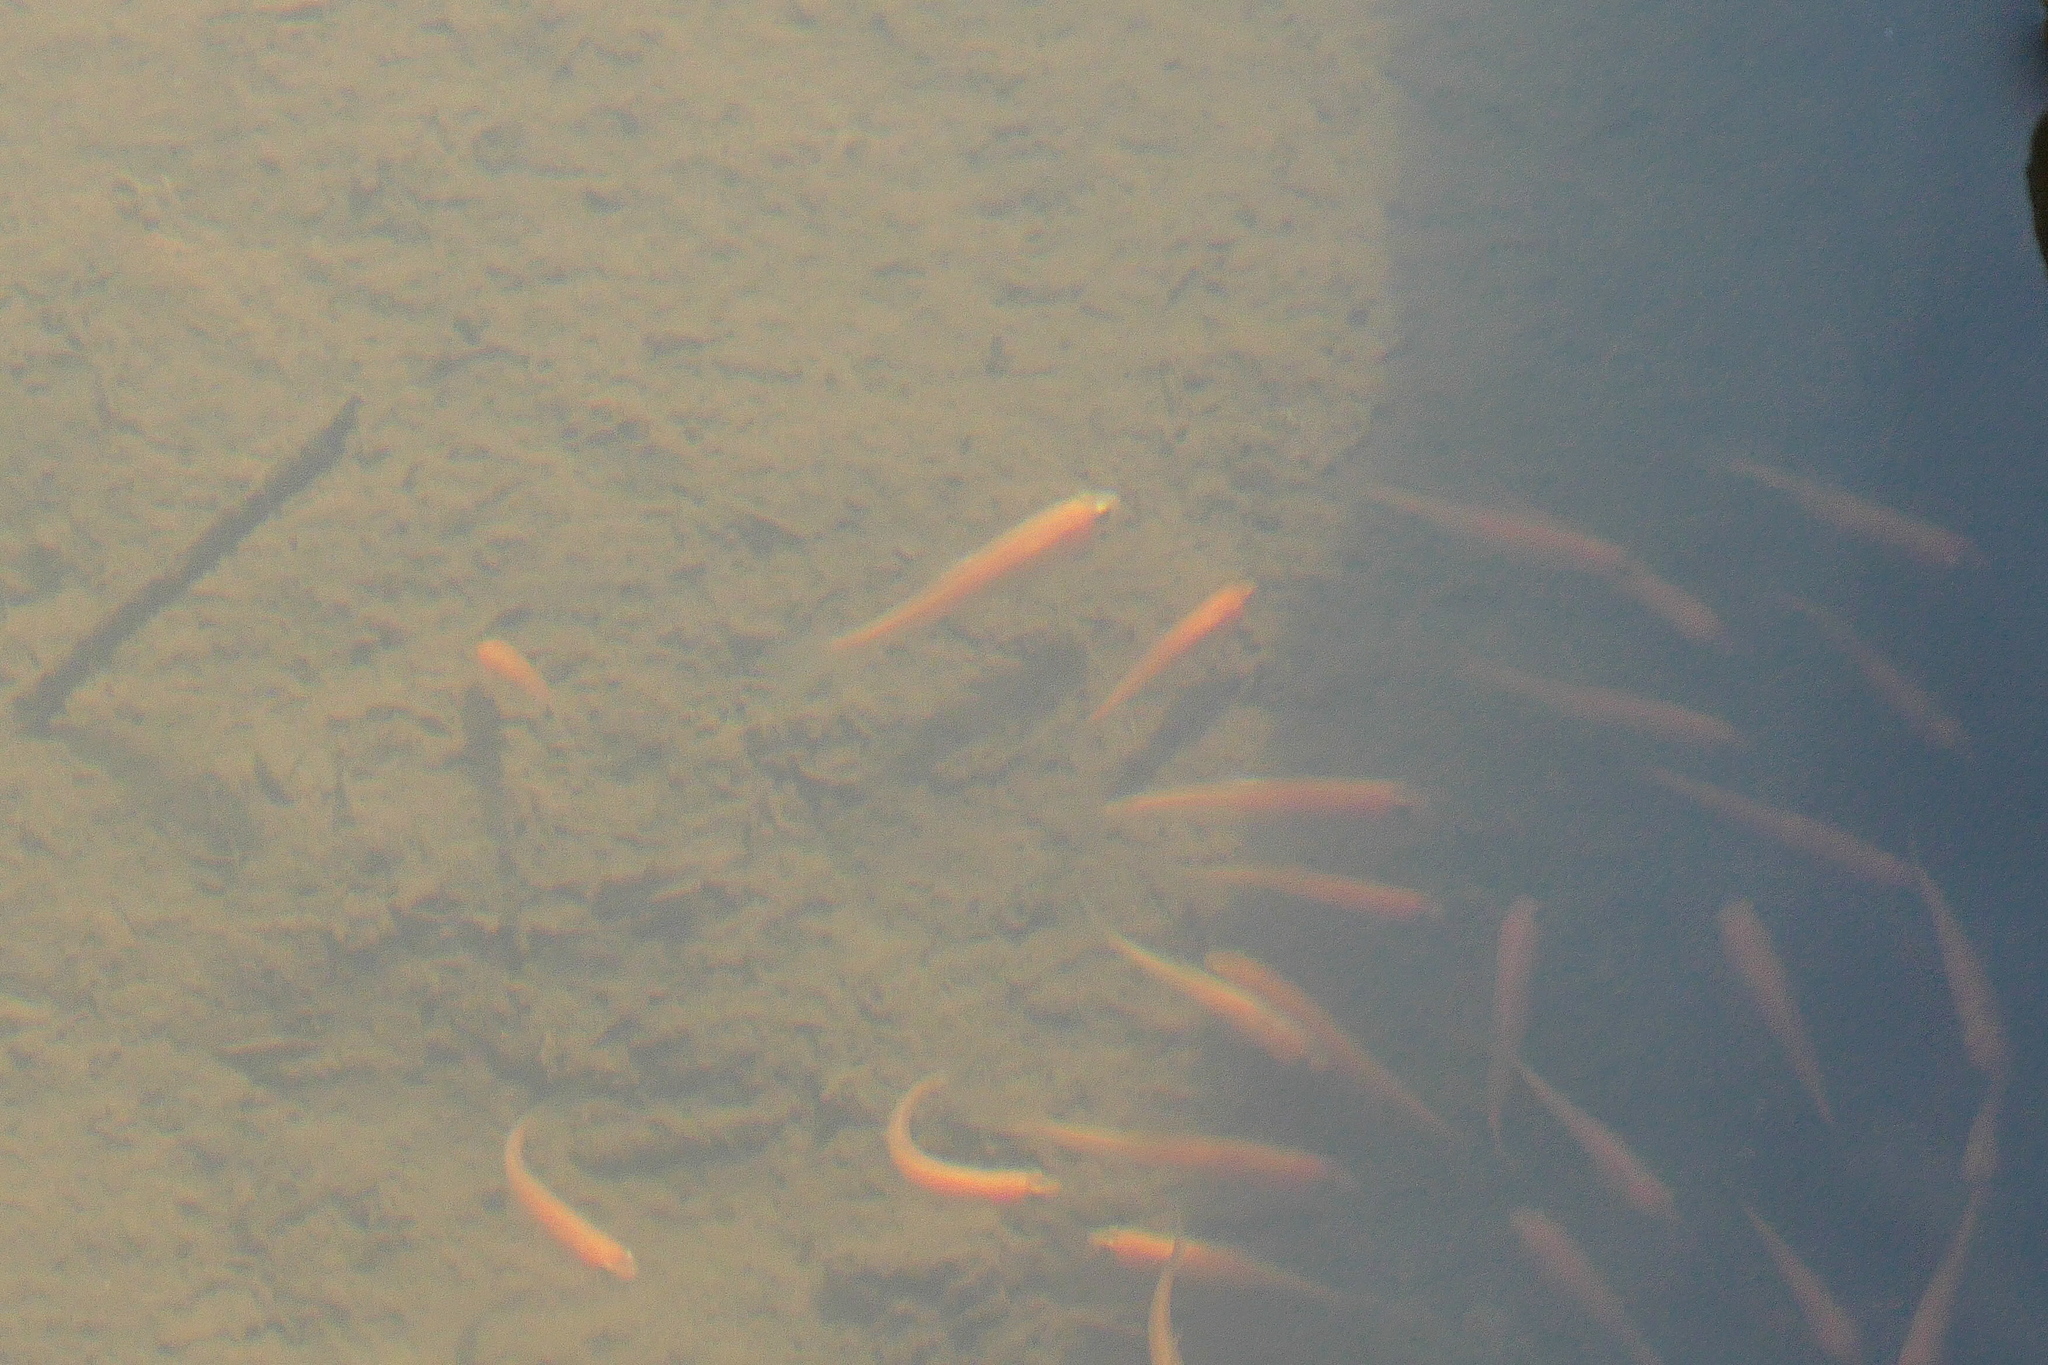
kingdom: Animalia
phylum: Chordata
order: Cypriniformes
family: Cyprinidae
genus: Pimephales
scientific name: Pimephales promelas
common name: Fathead minnow
